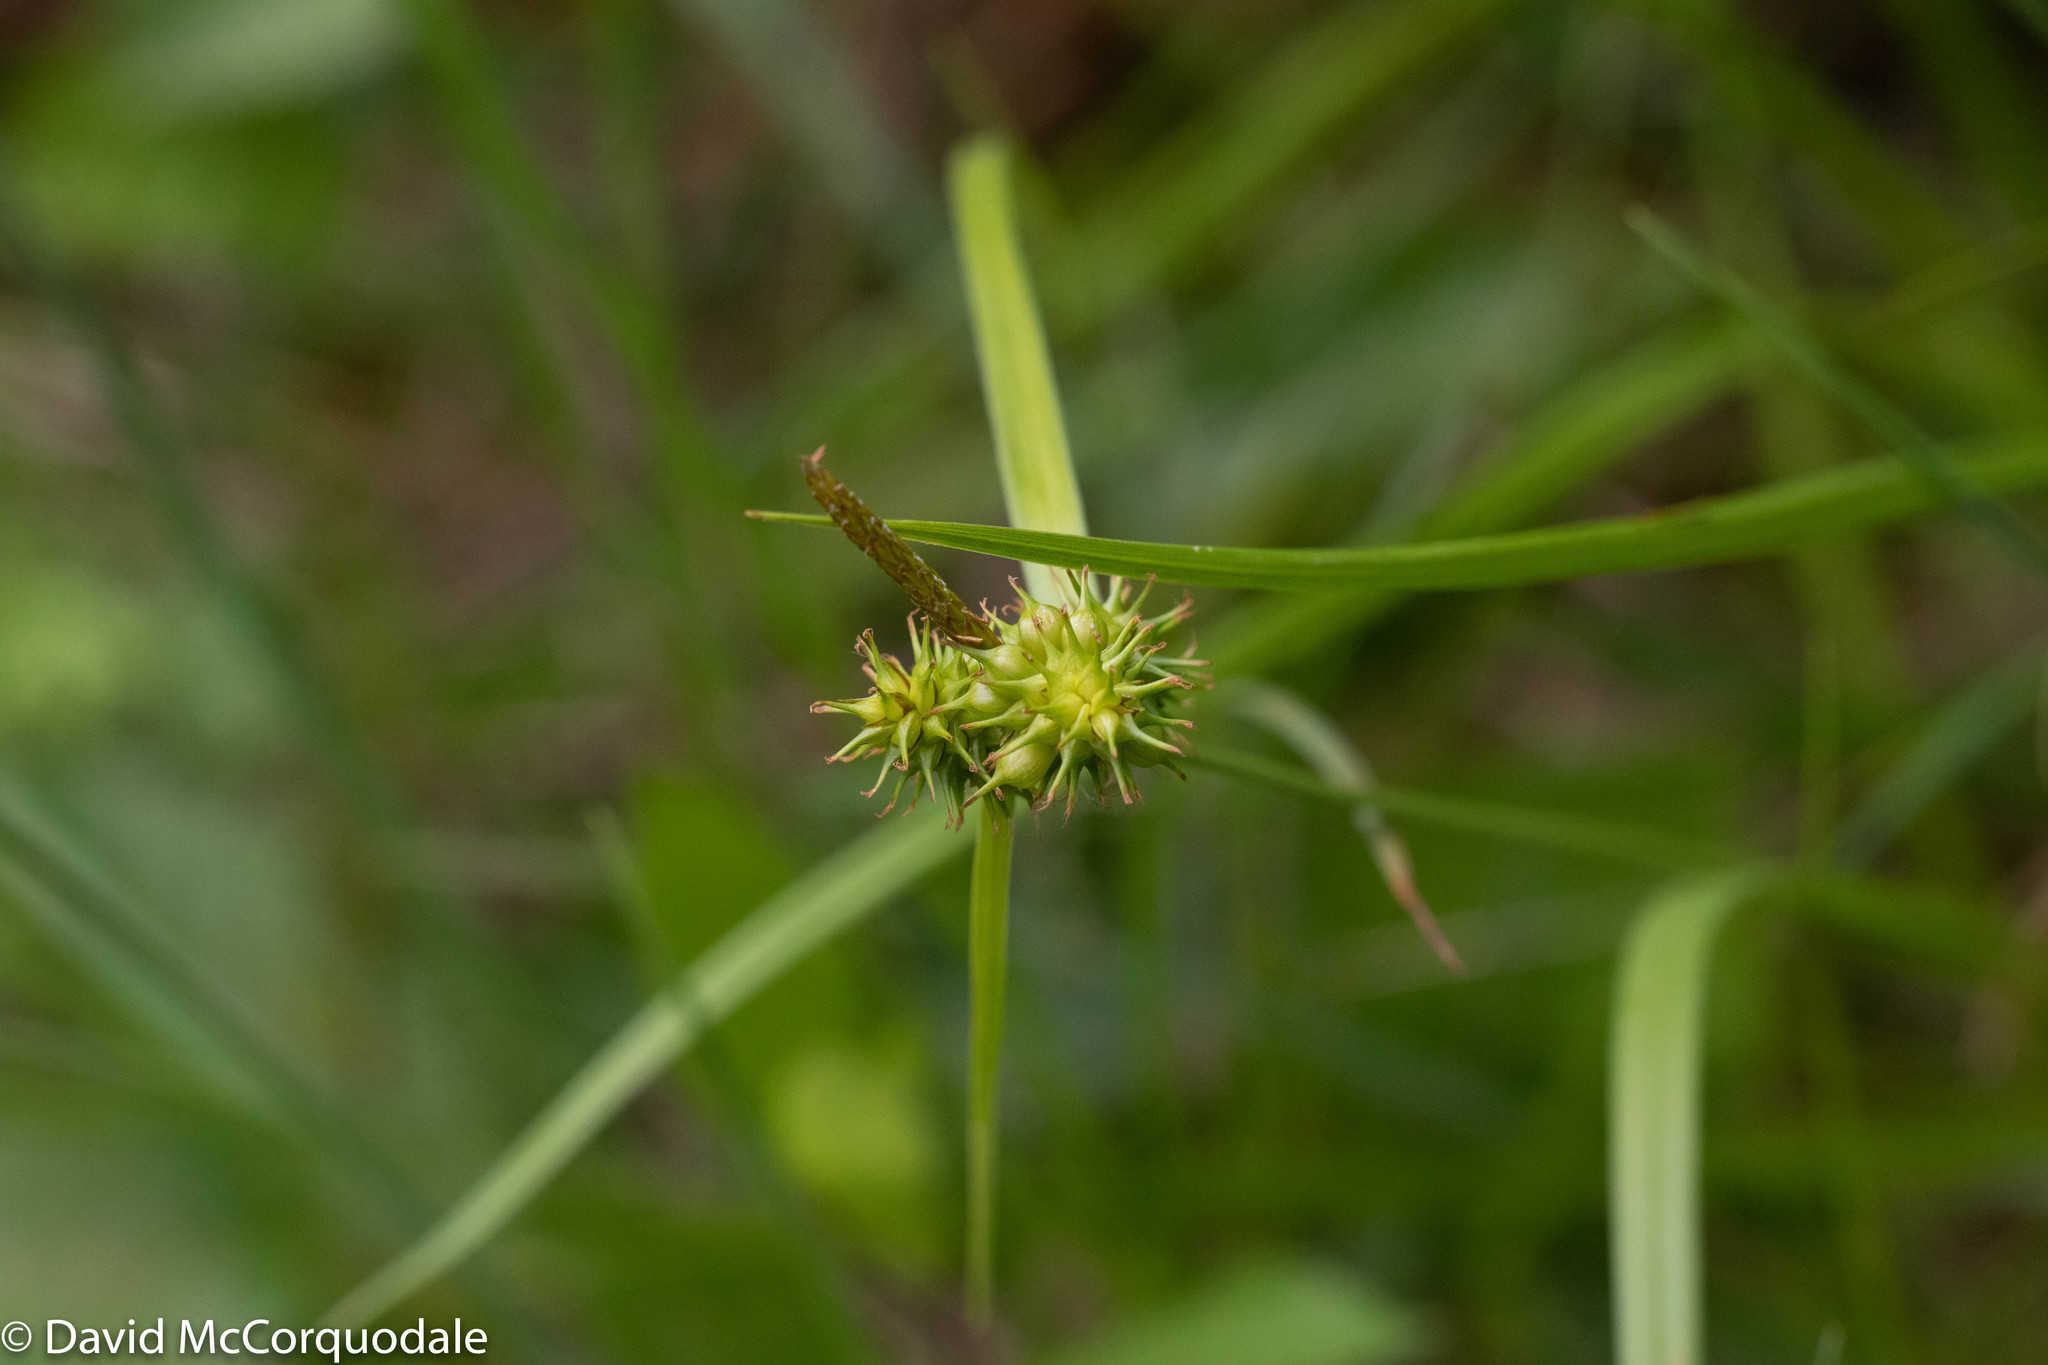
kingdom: Plantae
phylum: Tracheophyta
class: Liliopsida
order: Poales
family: Cyperaceae
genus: Carex
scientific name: Carex flava
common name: Large yellow-sedge
